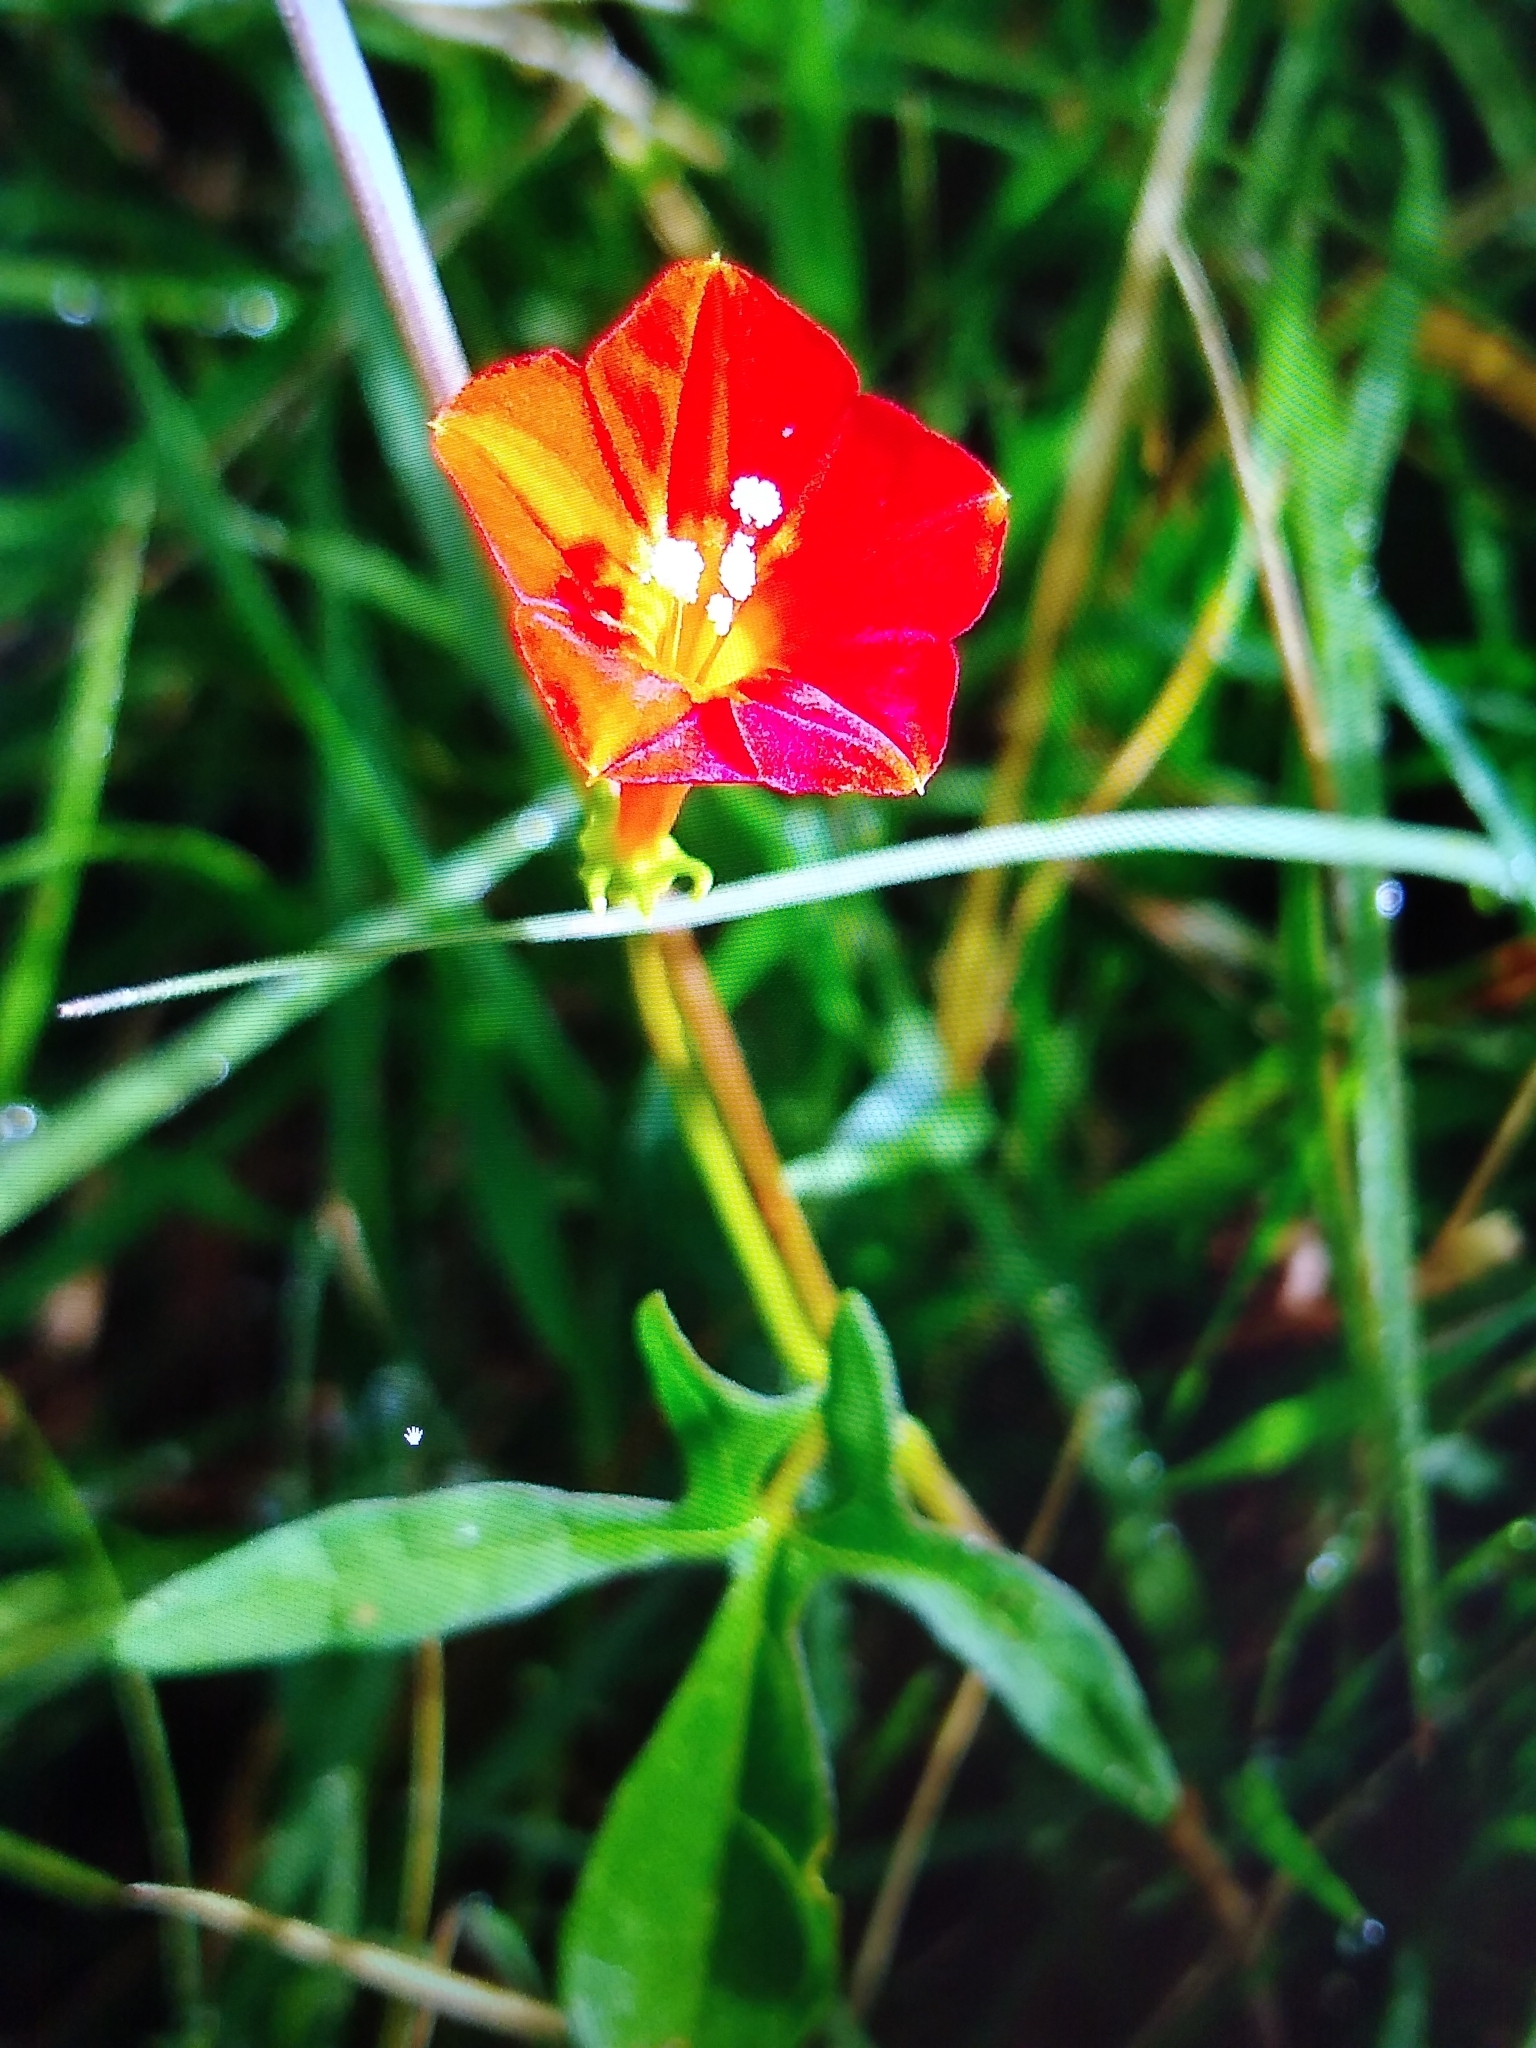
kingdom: Plantae
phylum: Tracheophyta
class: Magnoliopsida
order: Solanales
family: Convolvulaceae
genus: Ipomoea
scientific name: Ipomoea cristulata
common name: Trans-pecos morning-glory
